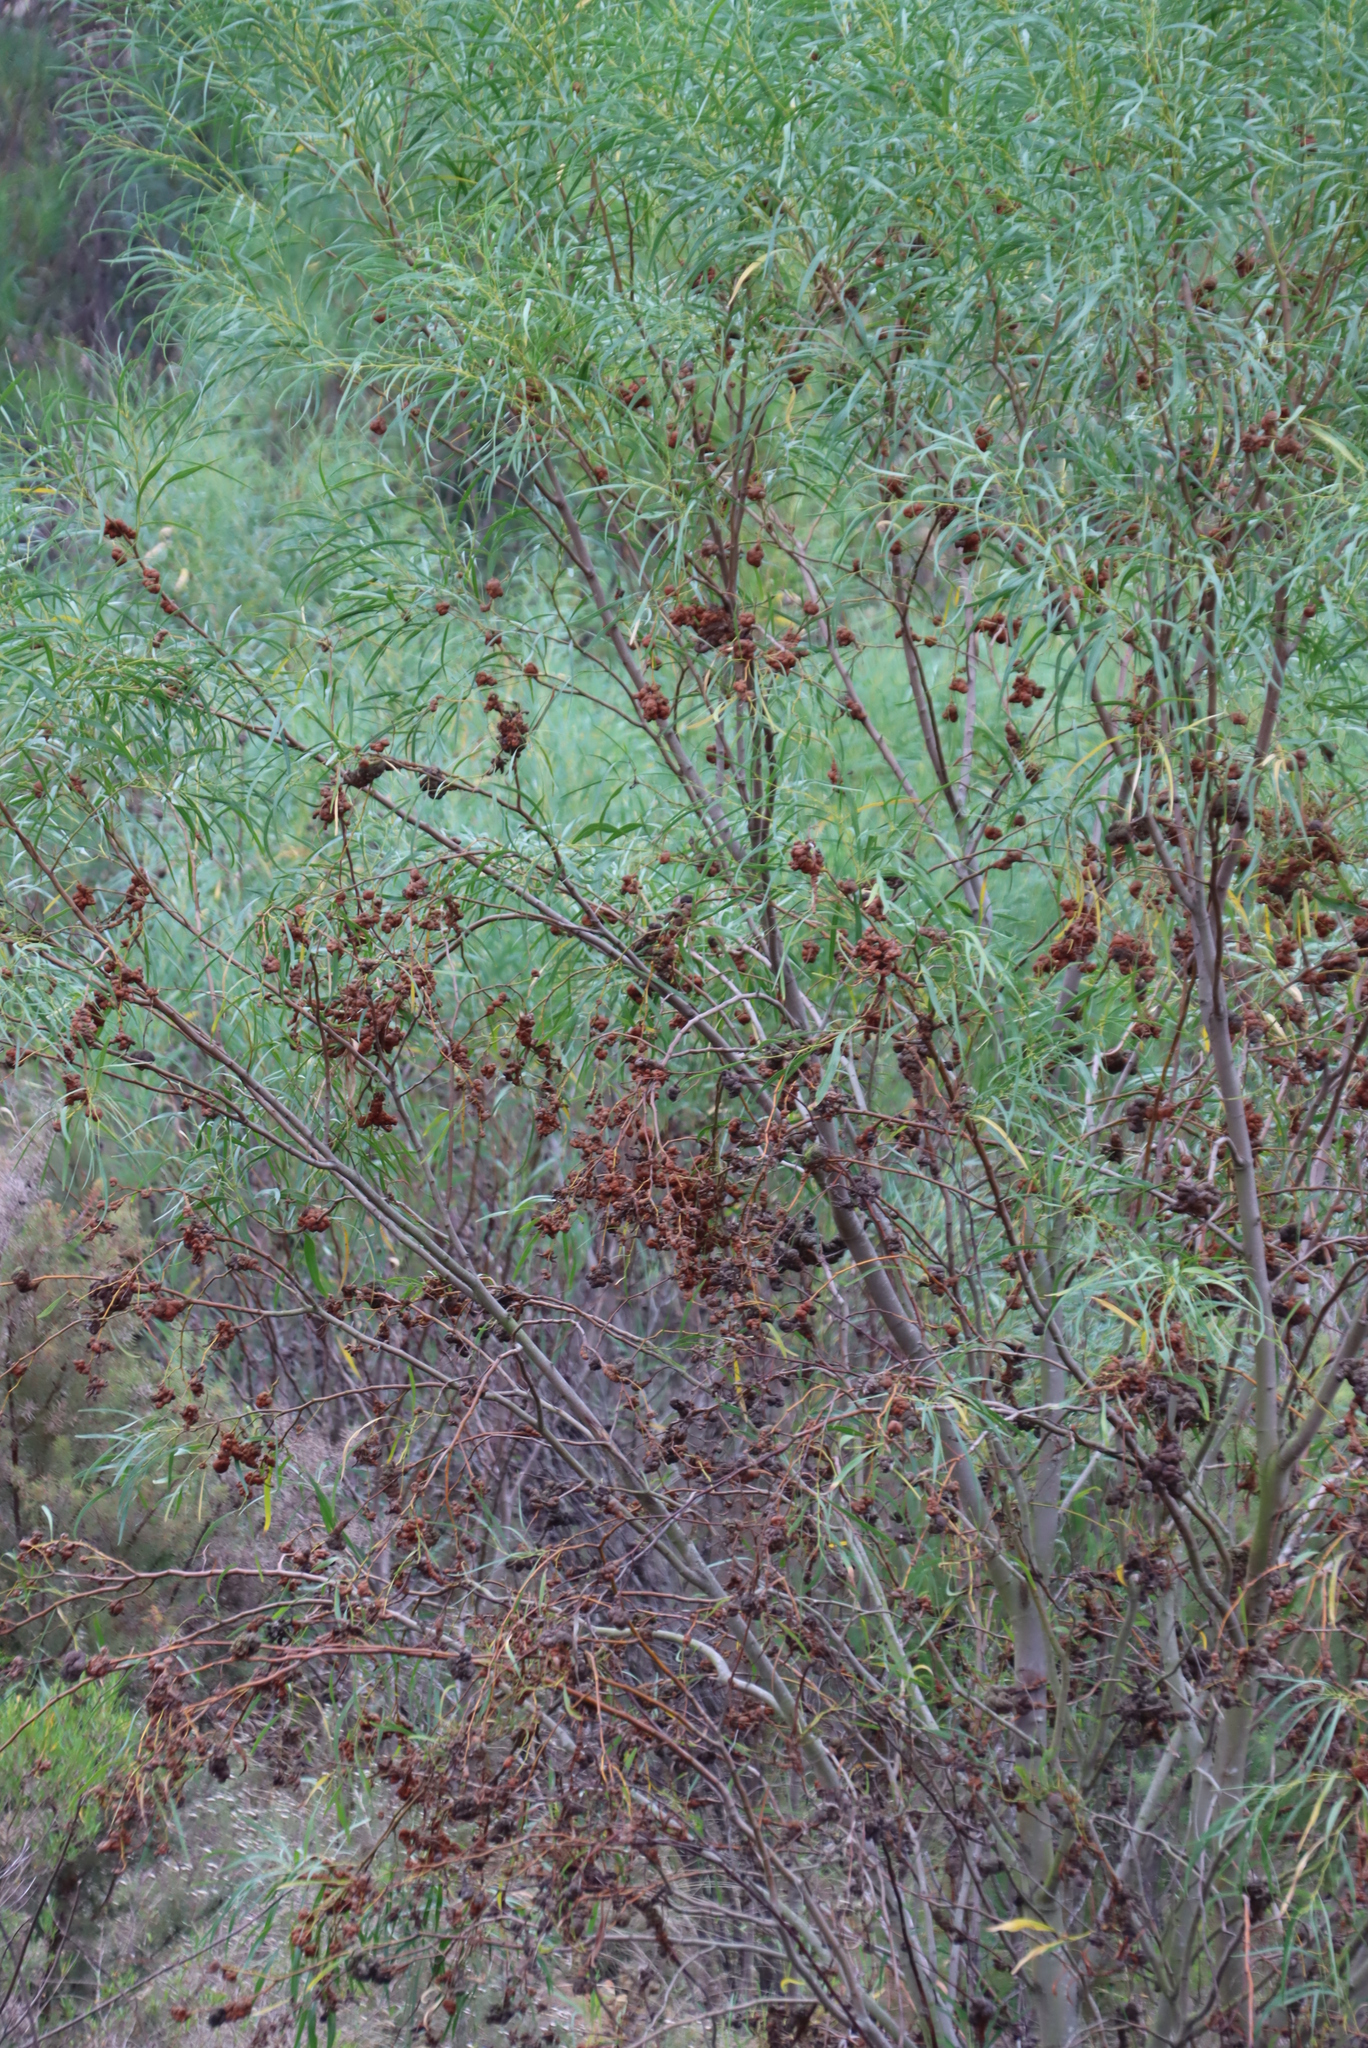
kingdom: Fungi
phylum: Basidiomycota
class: Pucciniomycetes
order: Pucciniales
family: Uromycladiaceae
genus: Uromycladium
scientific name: Uromycladium morrisii
